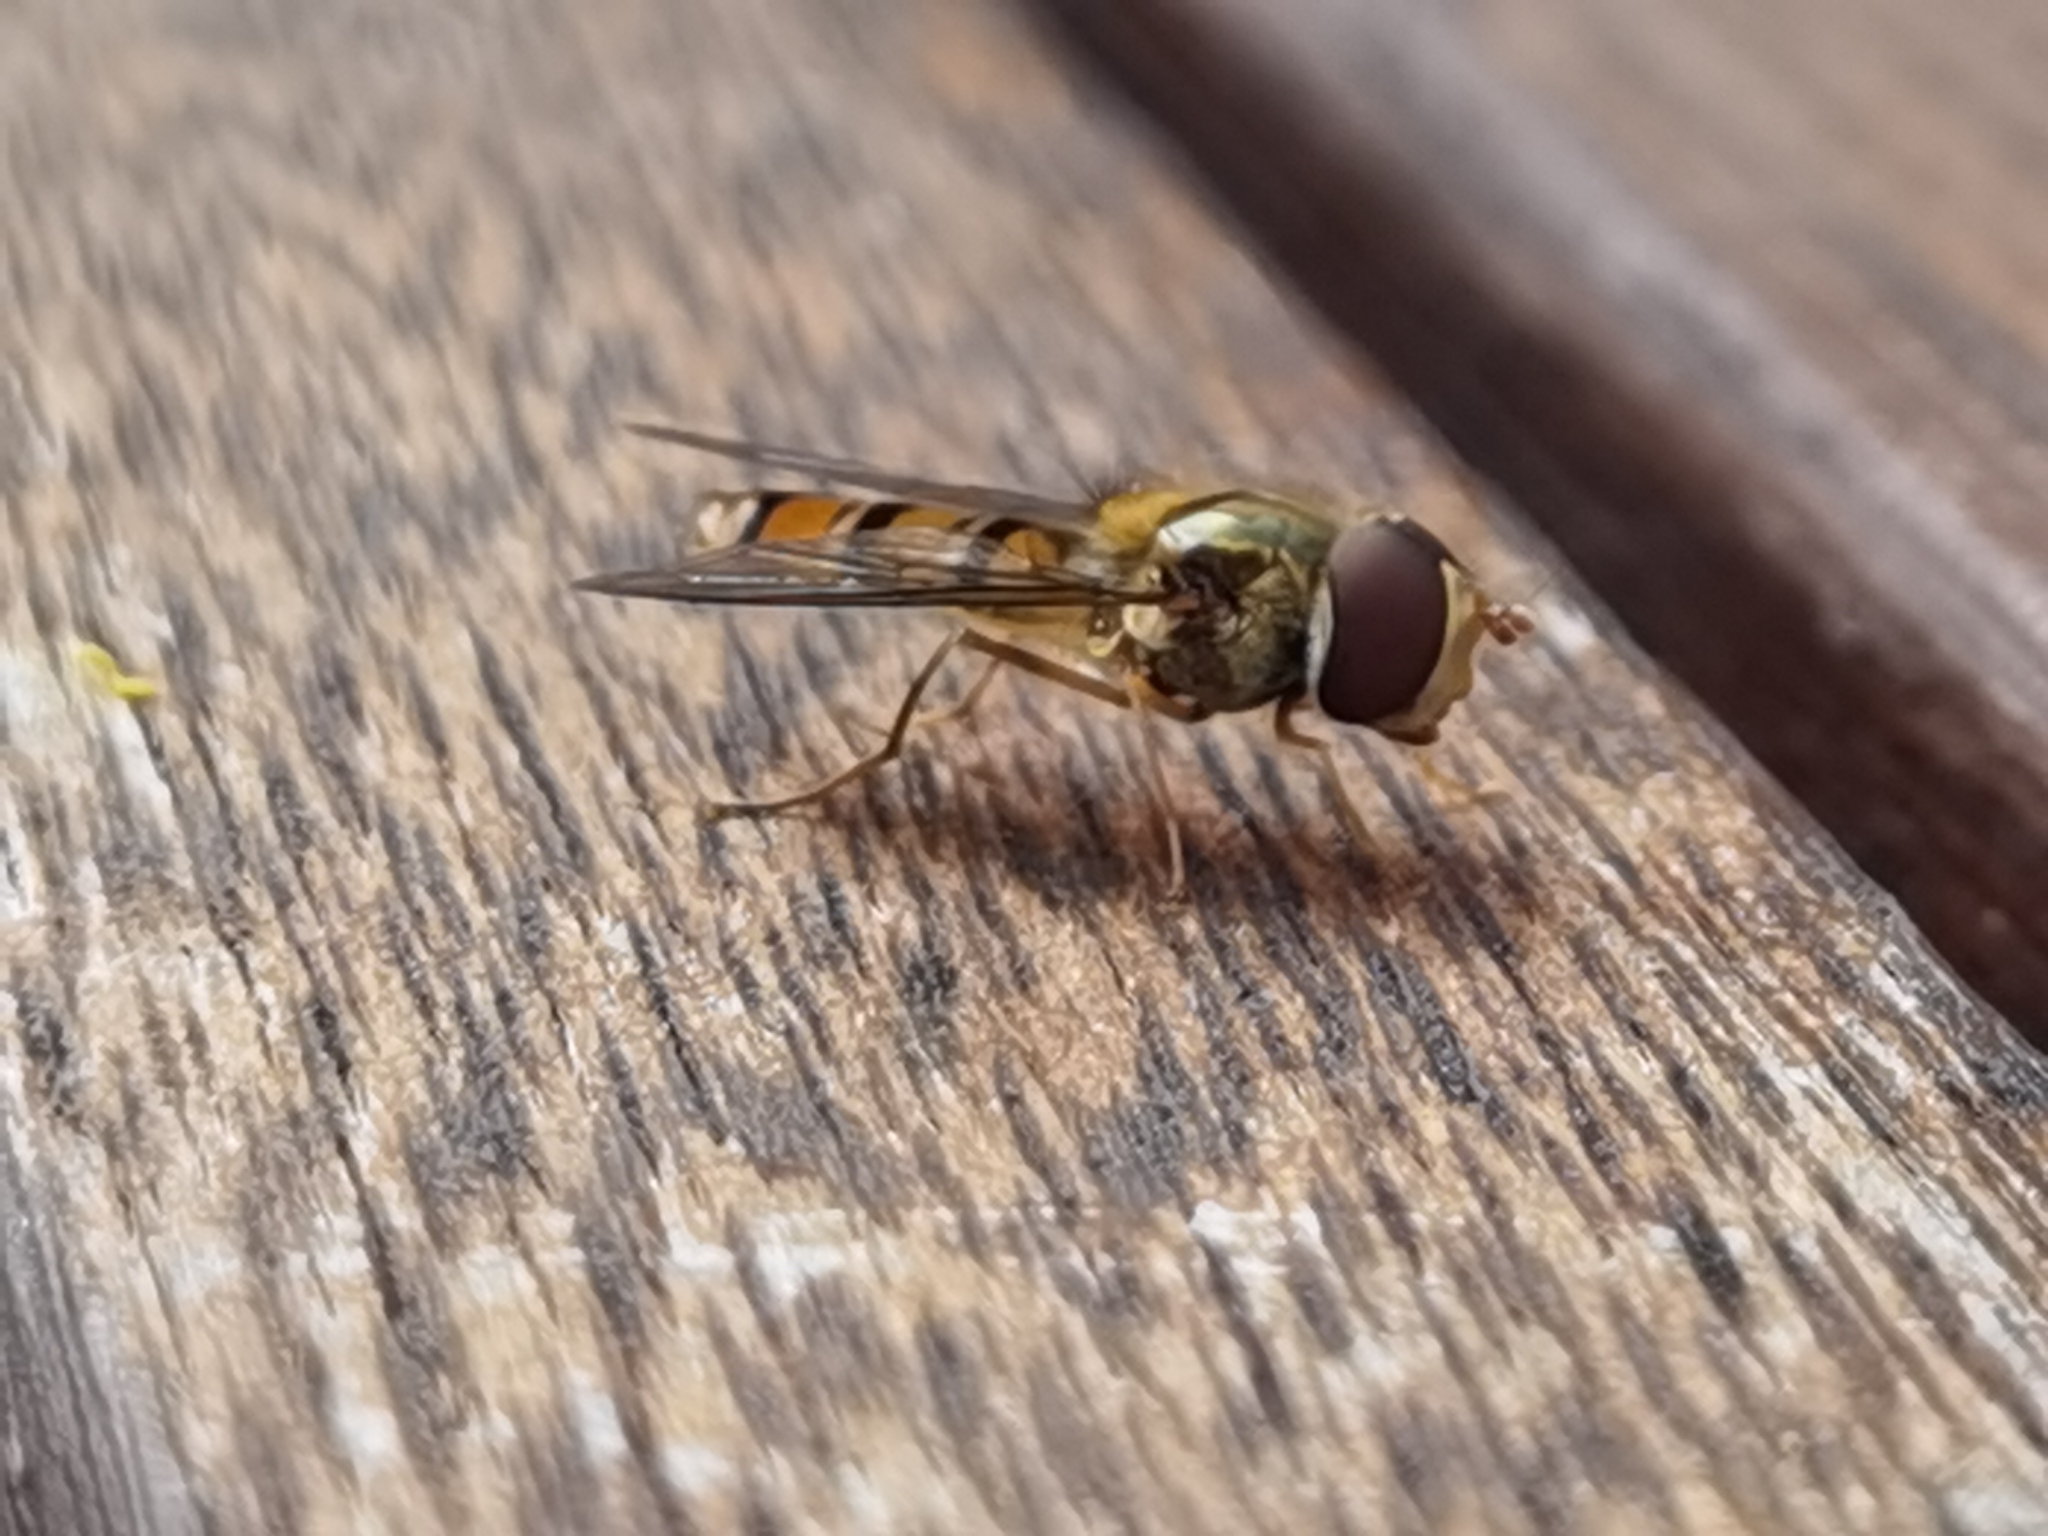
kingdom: Animalia
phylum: Arthropoda
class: Insecta
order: Diptera
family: Syrphidae
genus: Episyrphus
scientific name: Episyrphus balteatus
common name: Marmalade hoverfly
